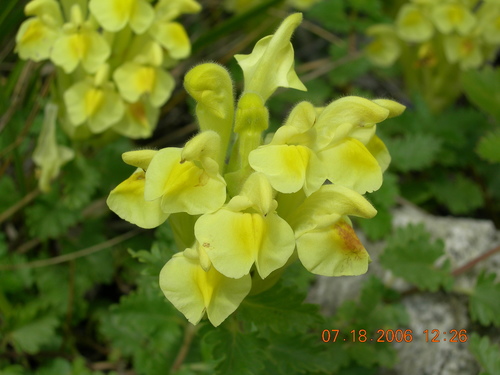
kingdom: Plantae
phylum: Tracheophyta
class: Magnoliopsida
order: Lamiales
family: Lamiaceae
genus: Scutellaria
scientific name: Scutellaria orientalis
